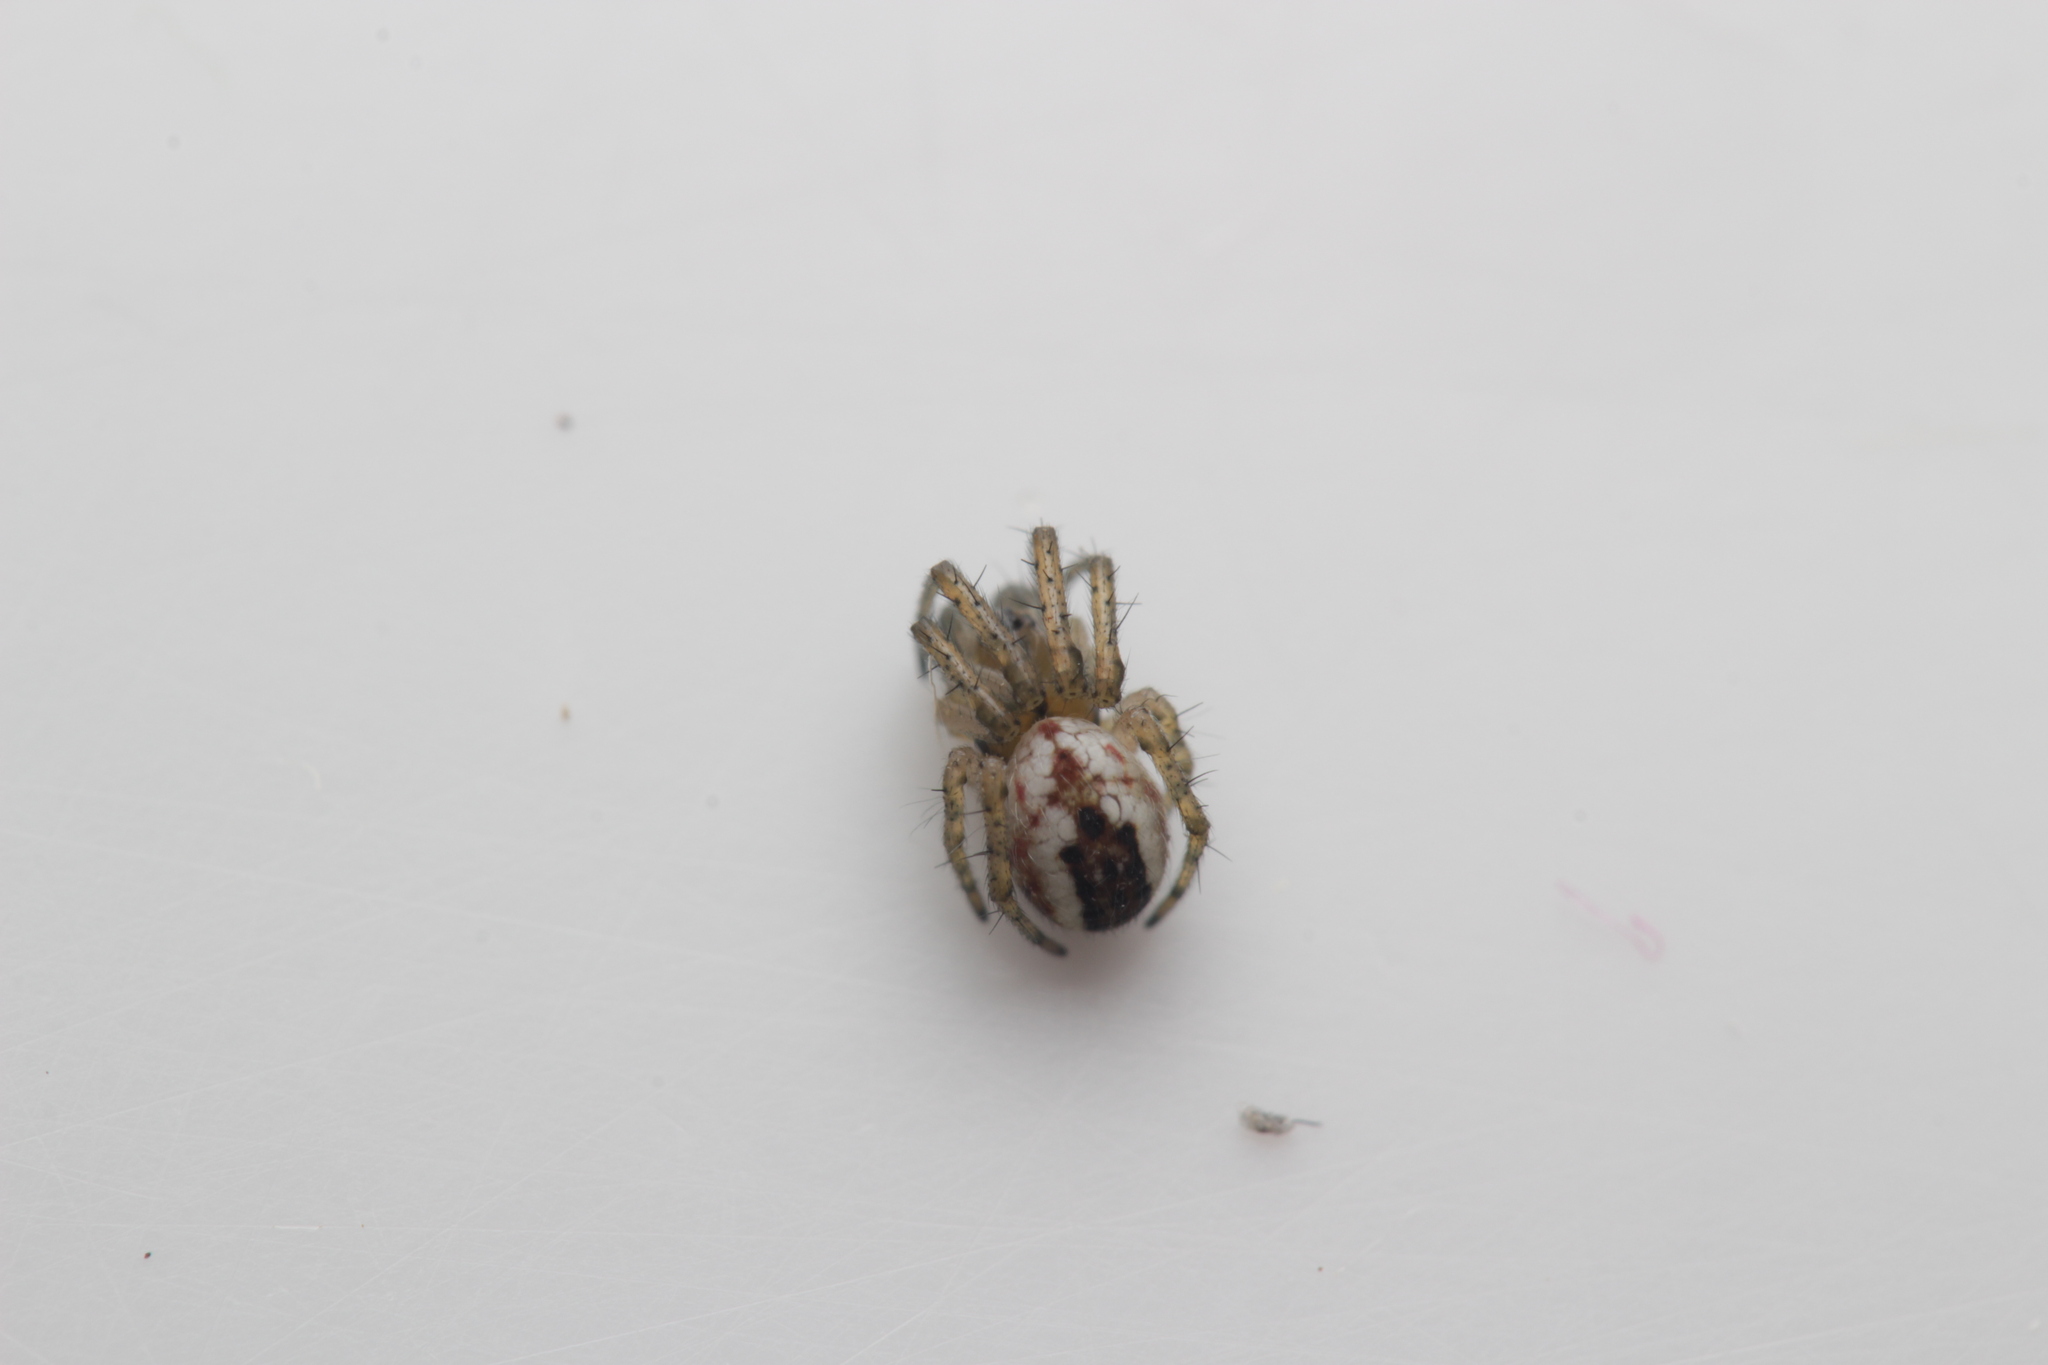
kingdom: Animalia
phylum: Arthropoda
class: Arachnida
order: Araneae
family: Araneidae
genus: Mangora
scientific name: Mangora acalypha
